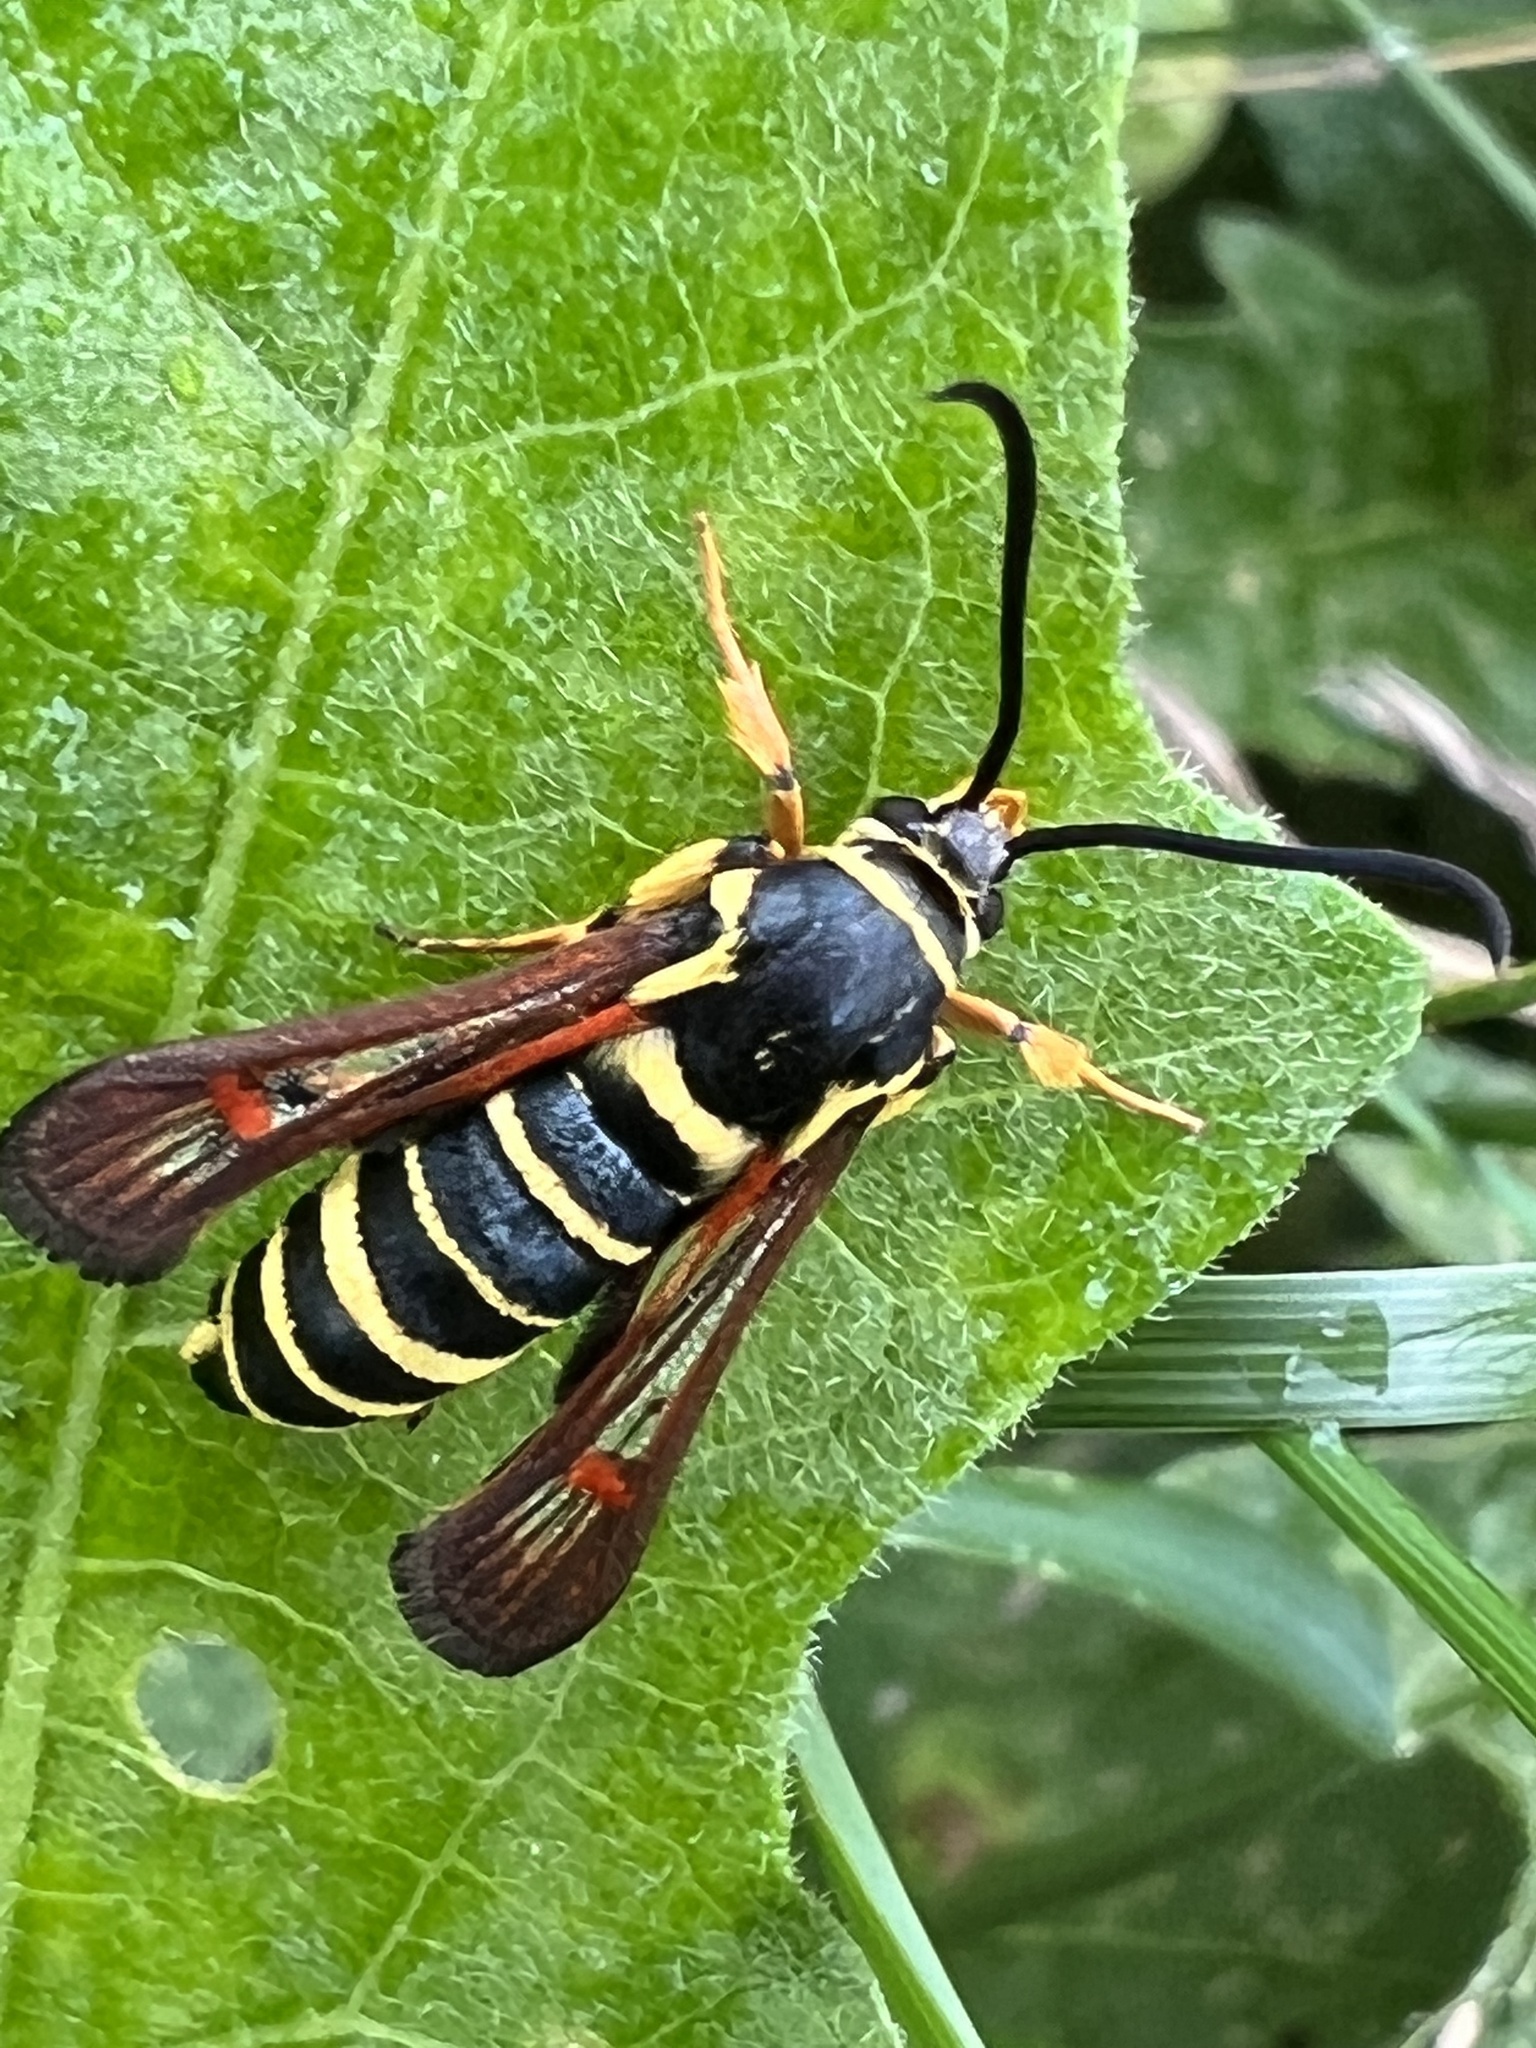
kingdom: Animalia
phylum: Arthropoda
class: Insecta
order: Lepidoptera
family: Sesiidae
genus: Synanthedon
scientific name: Synanthedon rileyana
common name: Riley's clearwing moth
